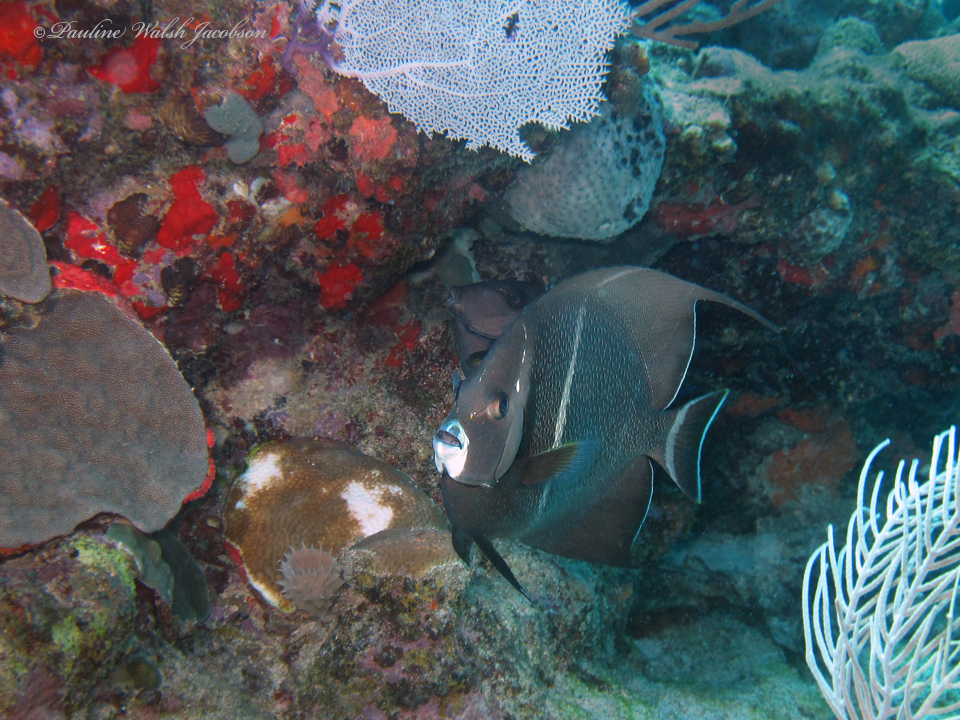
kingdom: Animalia
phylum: Chordata
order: Perciformes
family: Pomacanthidae
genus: Pomacanthus
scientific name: Pomacanthus arcuatus
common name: Gray angelfish
